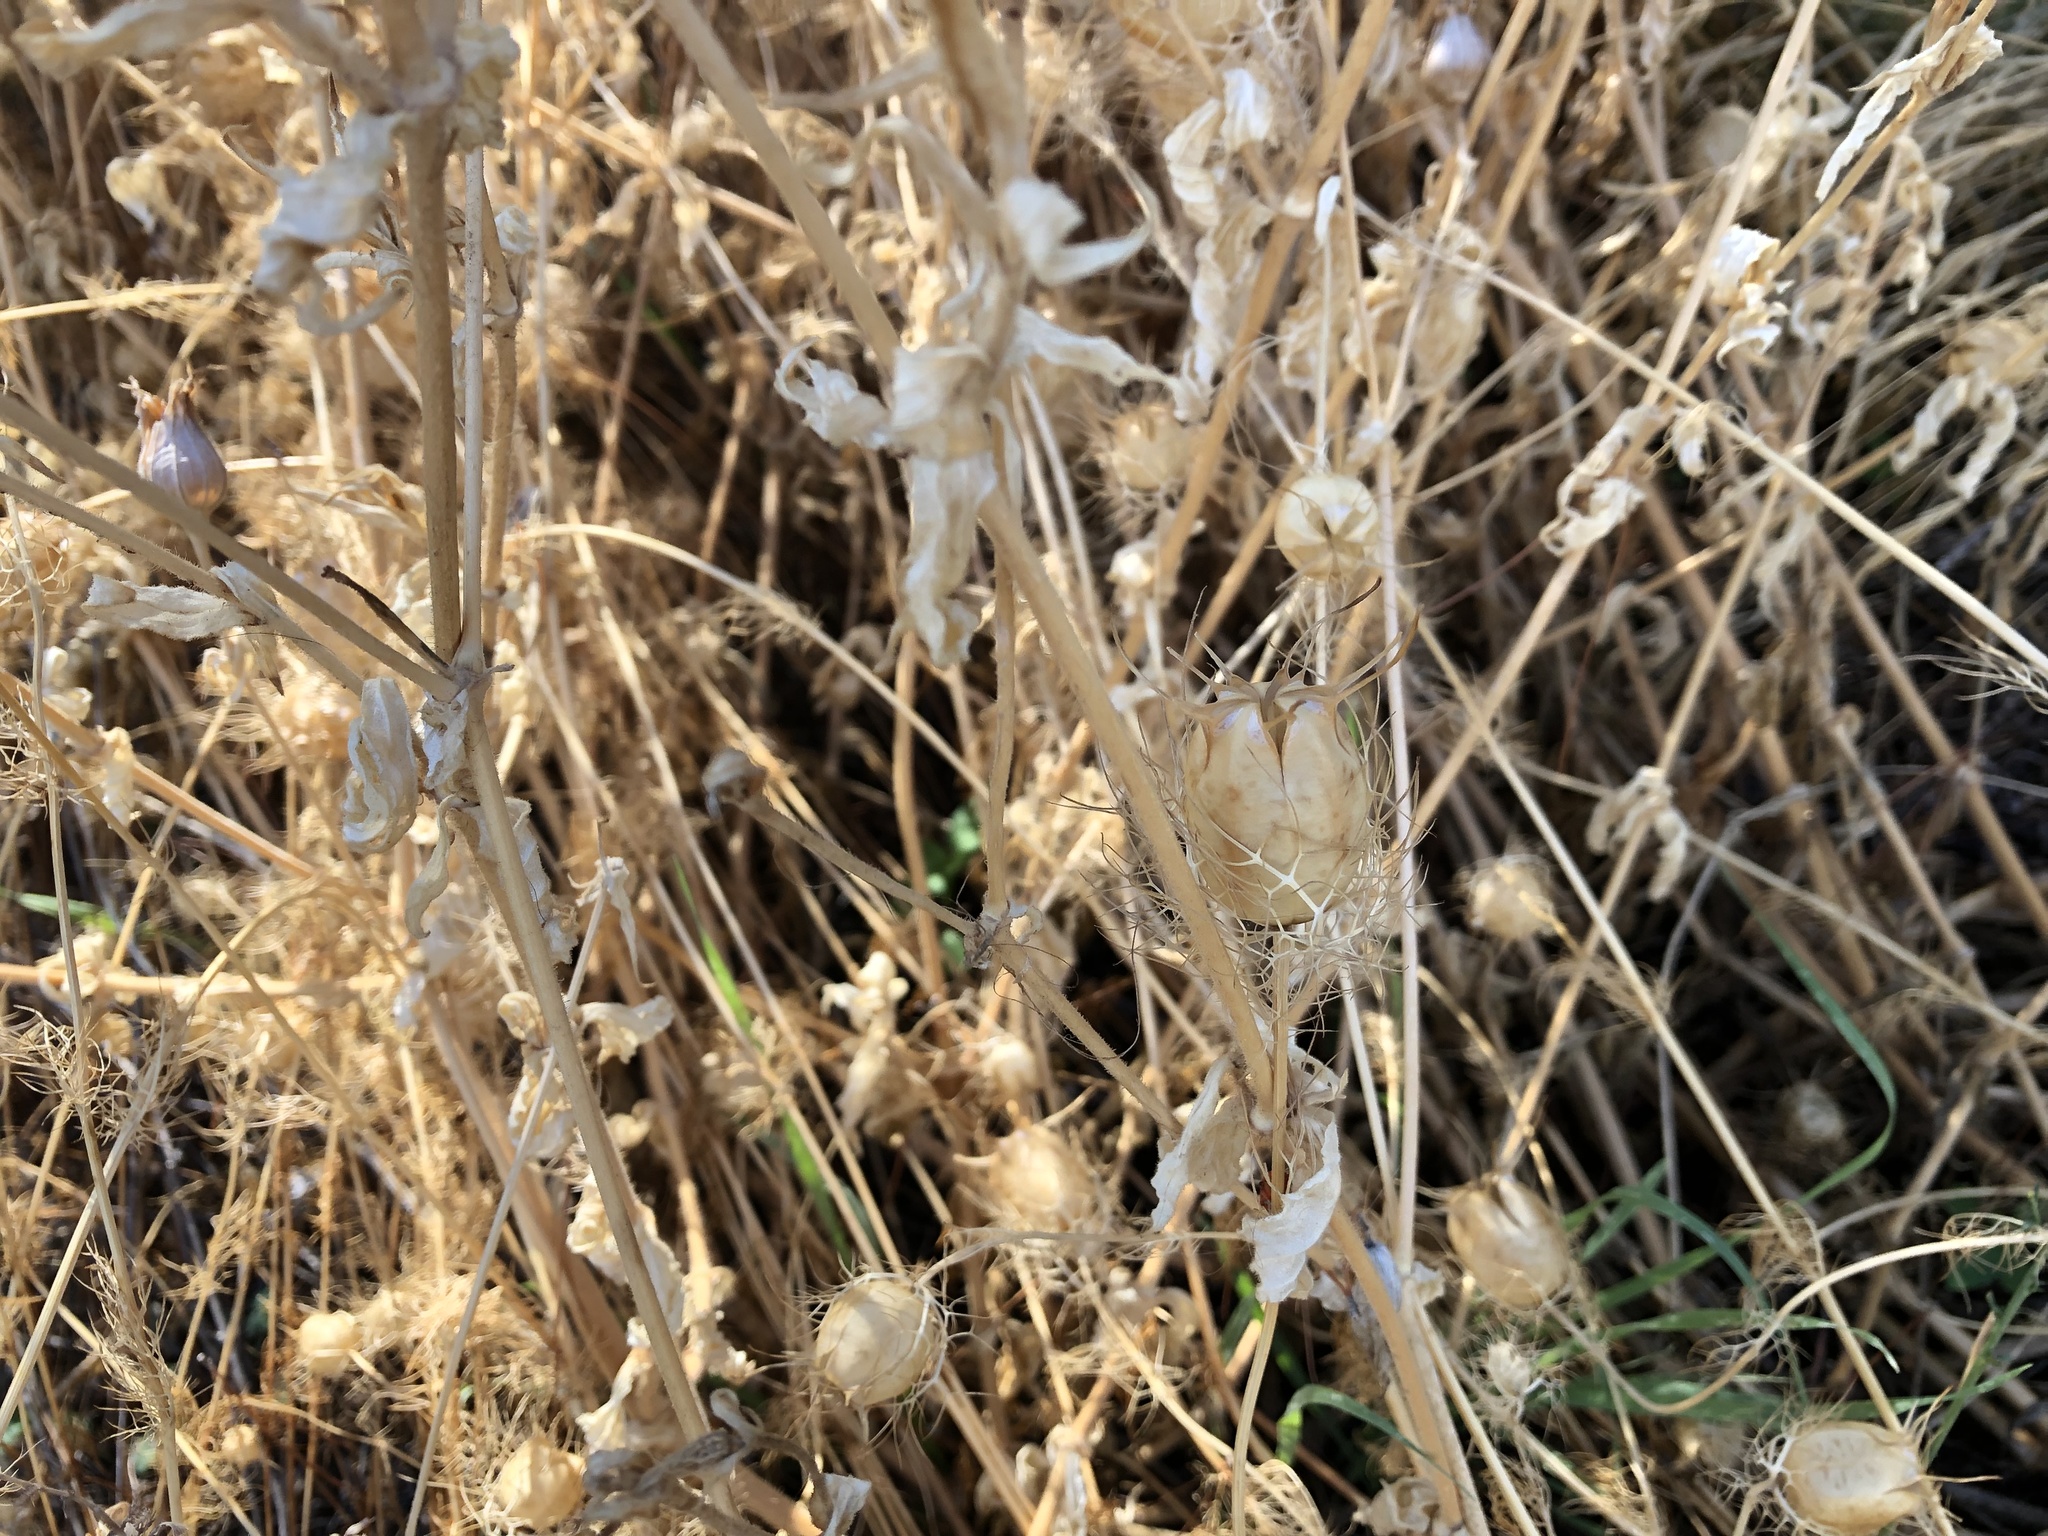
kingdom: Plantae
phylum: Tracheophyta
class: Magnoliopsida
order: Ranunculales
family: Ranunculaceae
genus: Nigella
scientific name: Nigella damascena
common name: Love-in-a-mist
